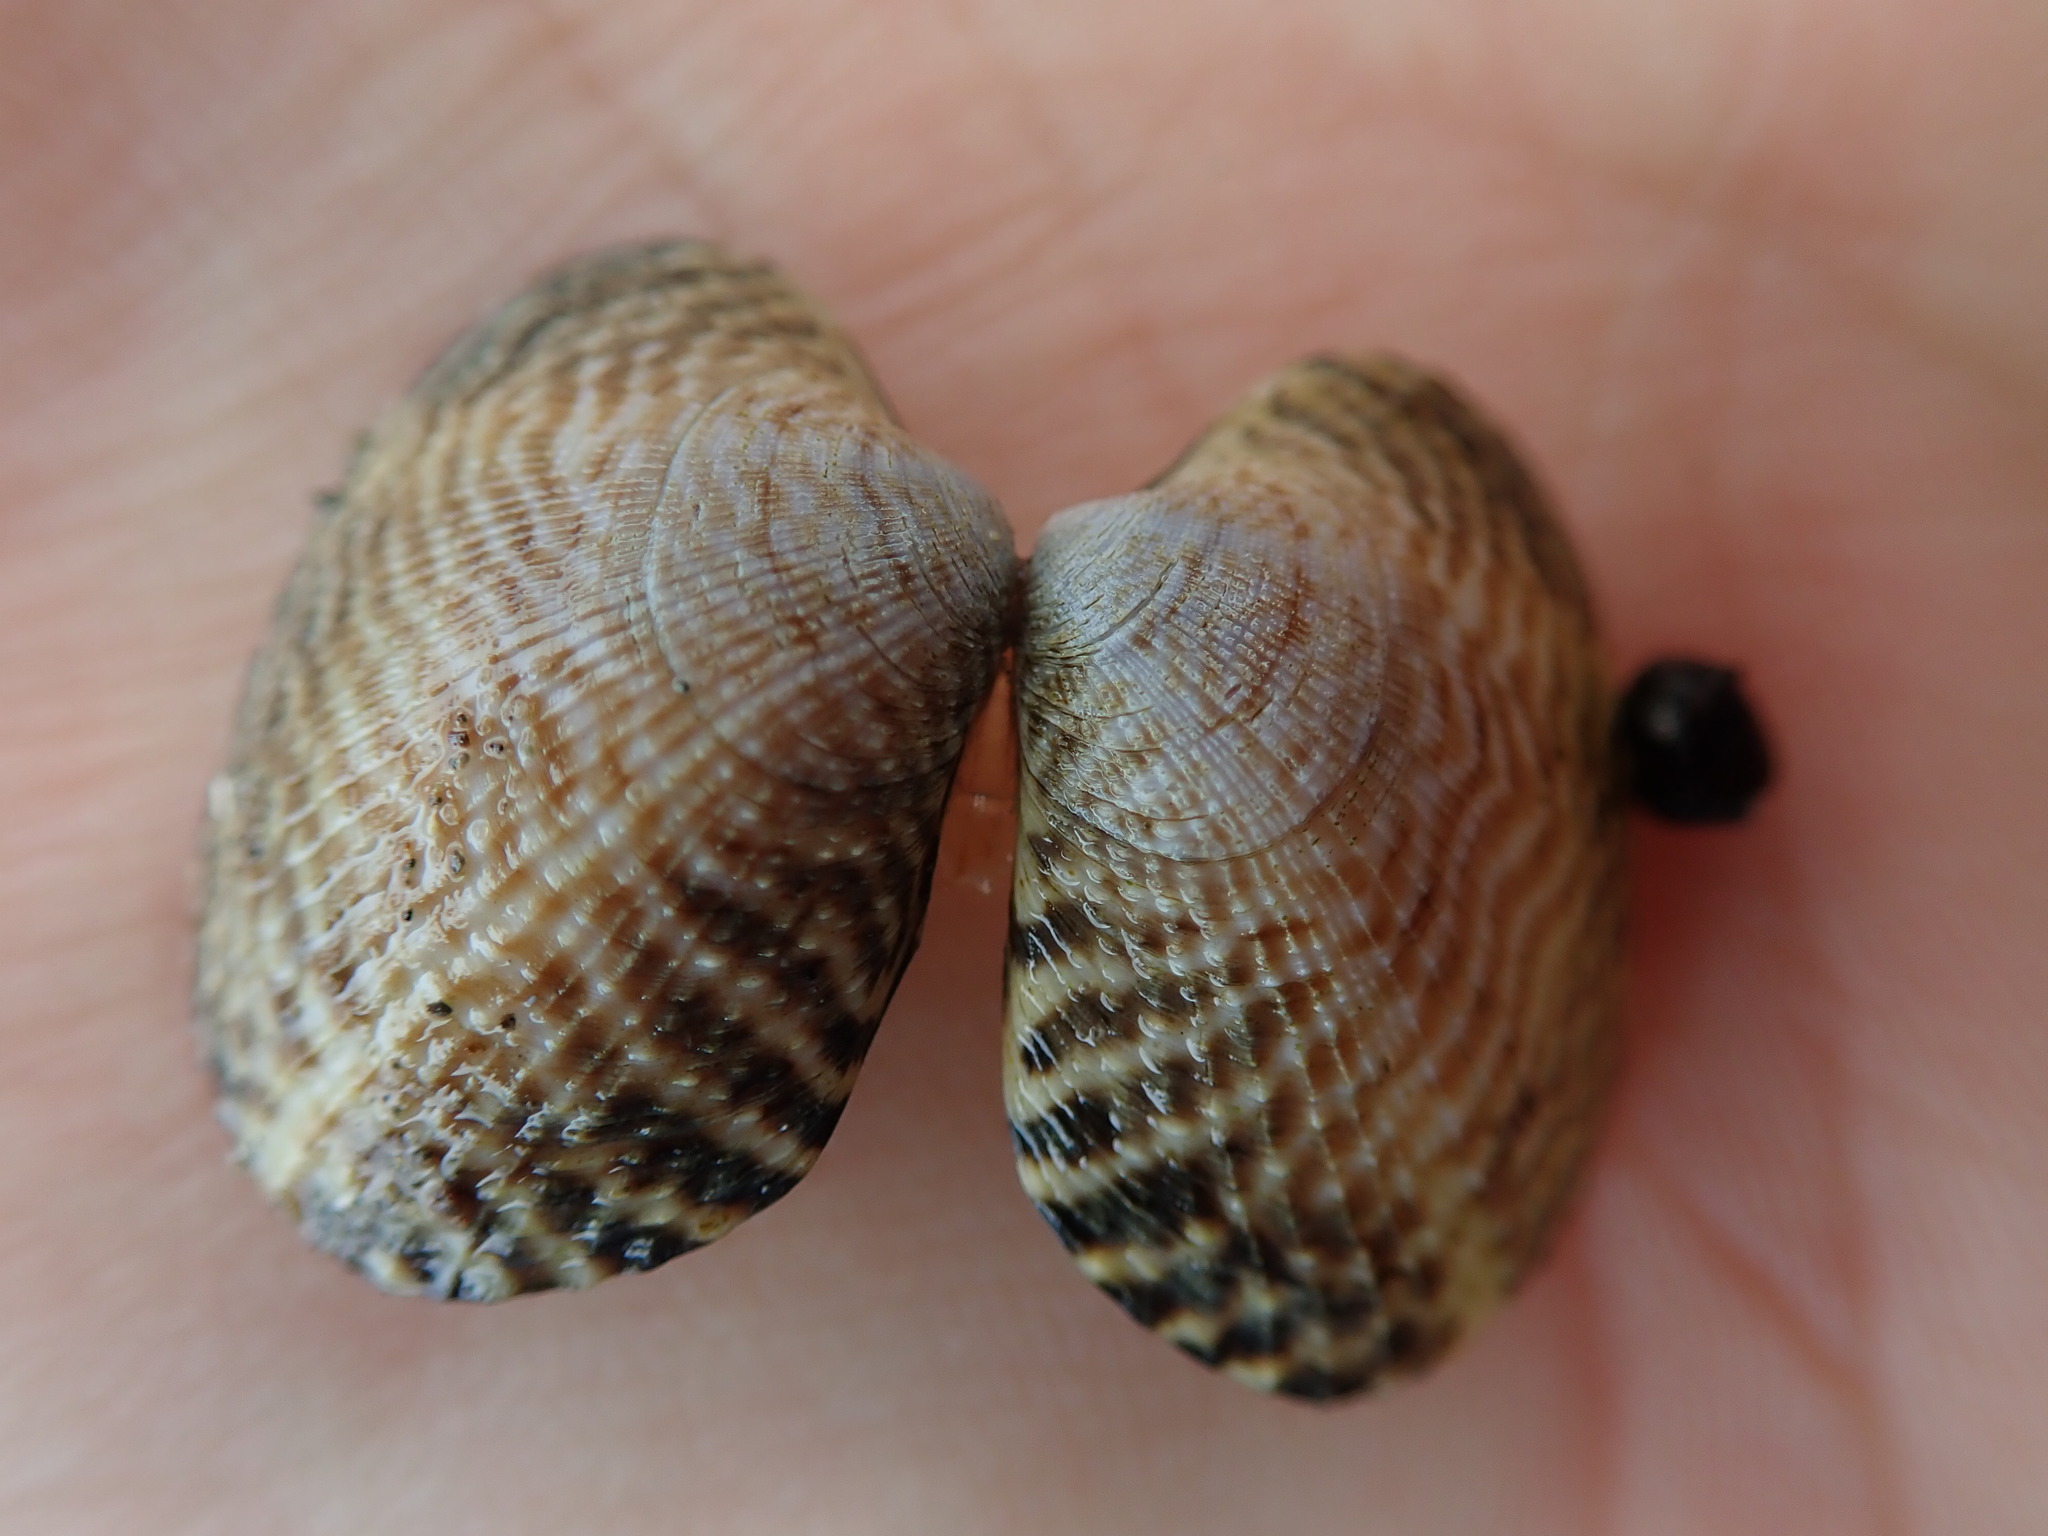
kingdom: Animalia
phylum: Mollusca
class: Bivalvia
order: Venerida
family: Veneridae
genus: Ruditapes
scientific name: Ruditapes philippinarum
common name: Manila clam
